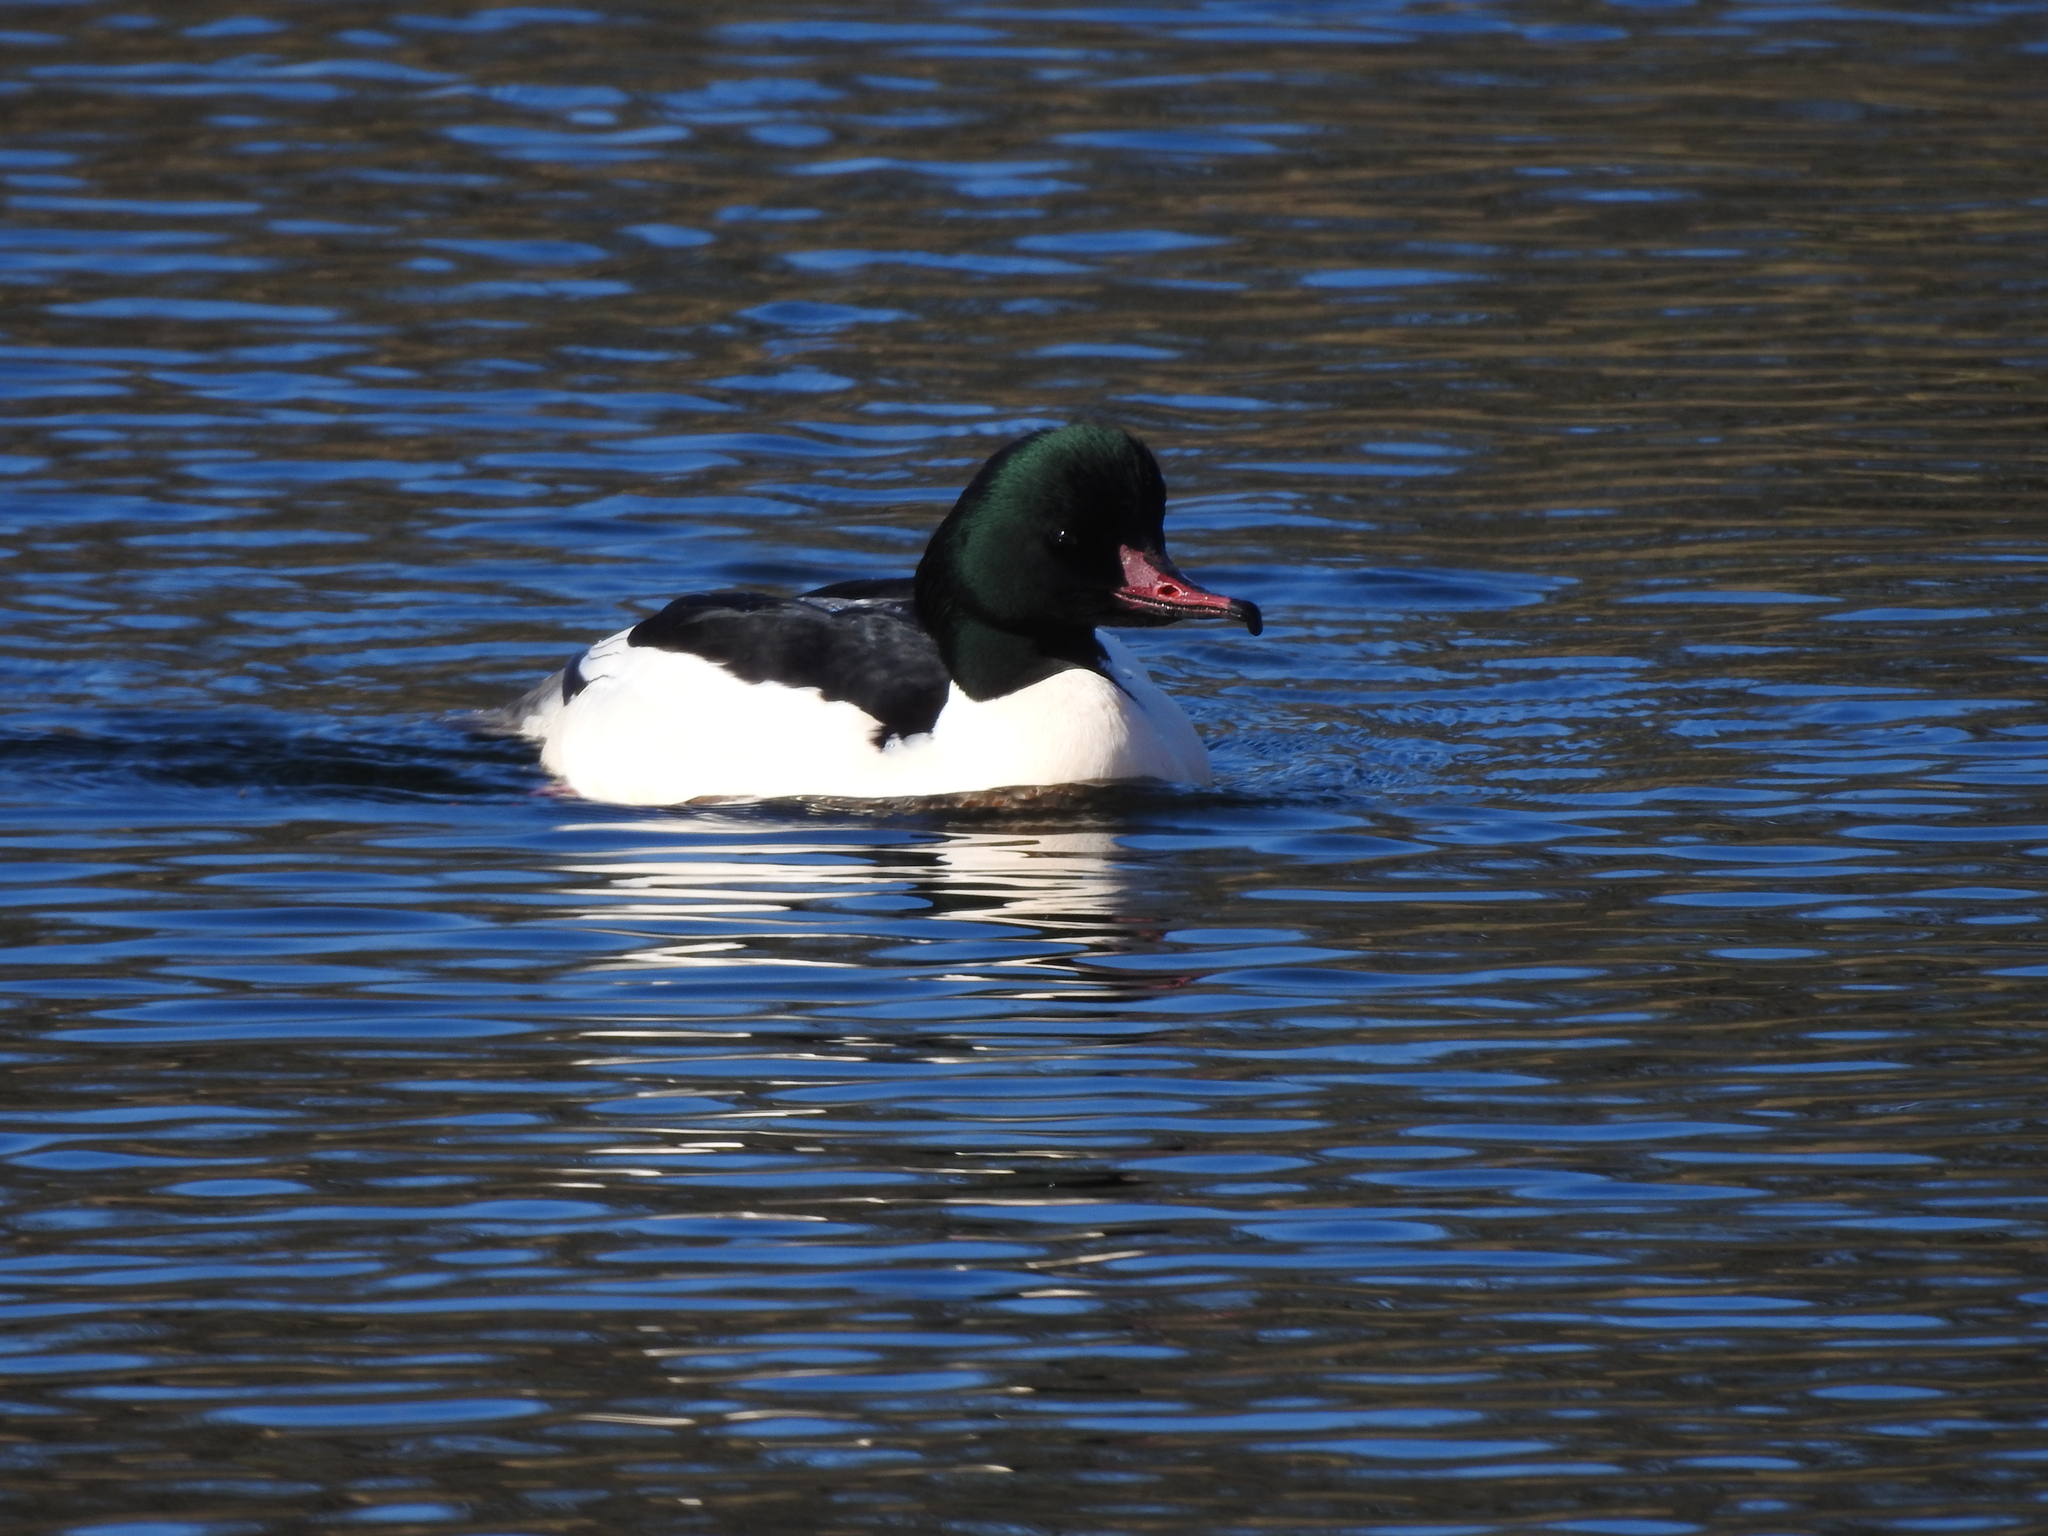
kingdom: Animalia
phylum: Chordata
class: Aves
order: Anseriformes
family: Anatidae
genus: Mergus
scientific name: Mergus merganser
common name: Common merganser
